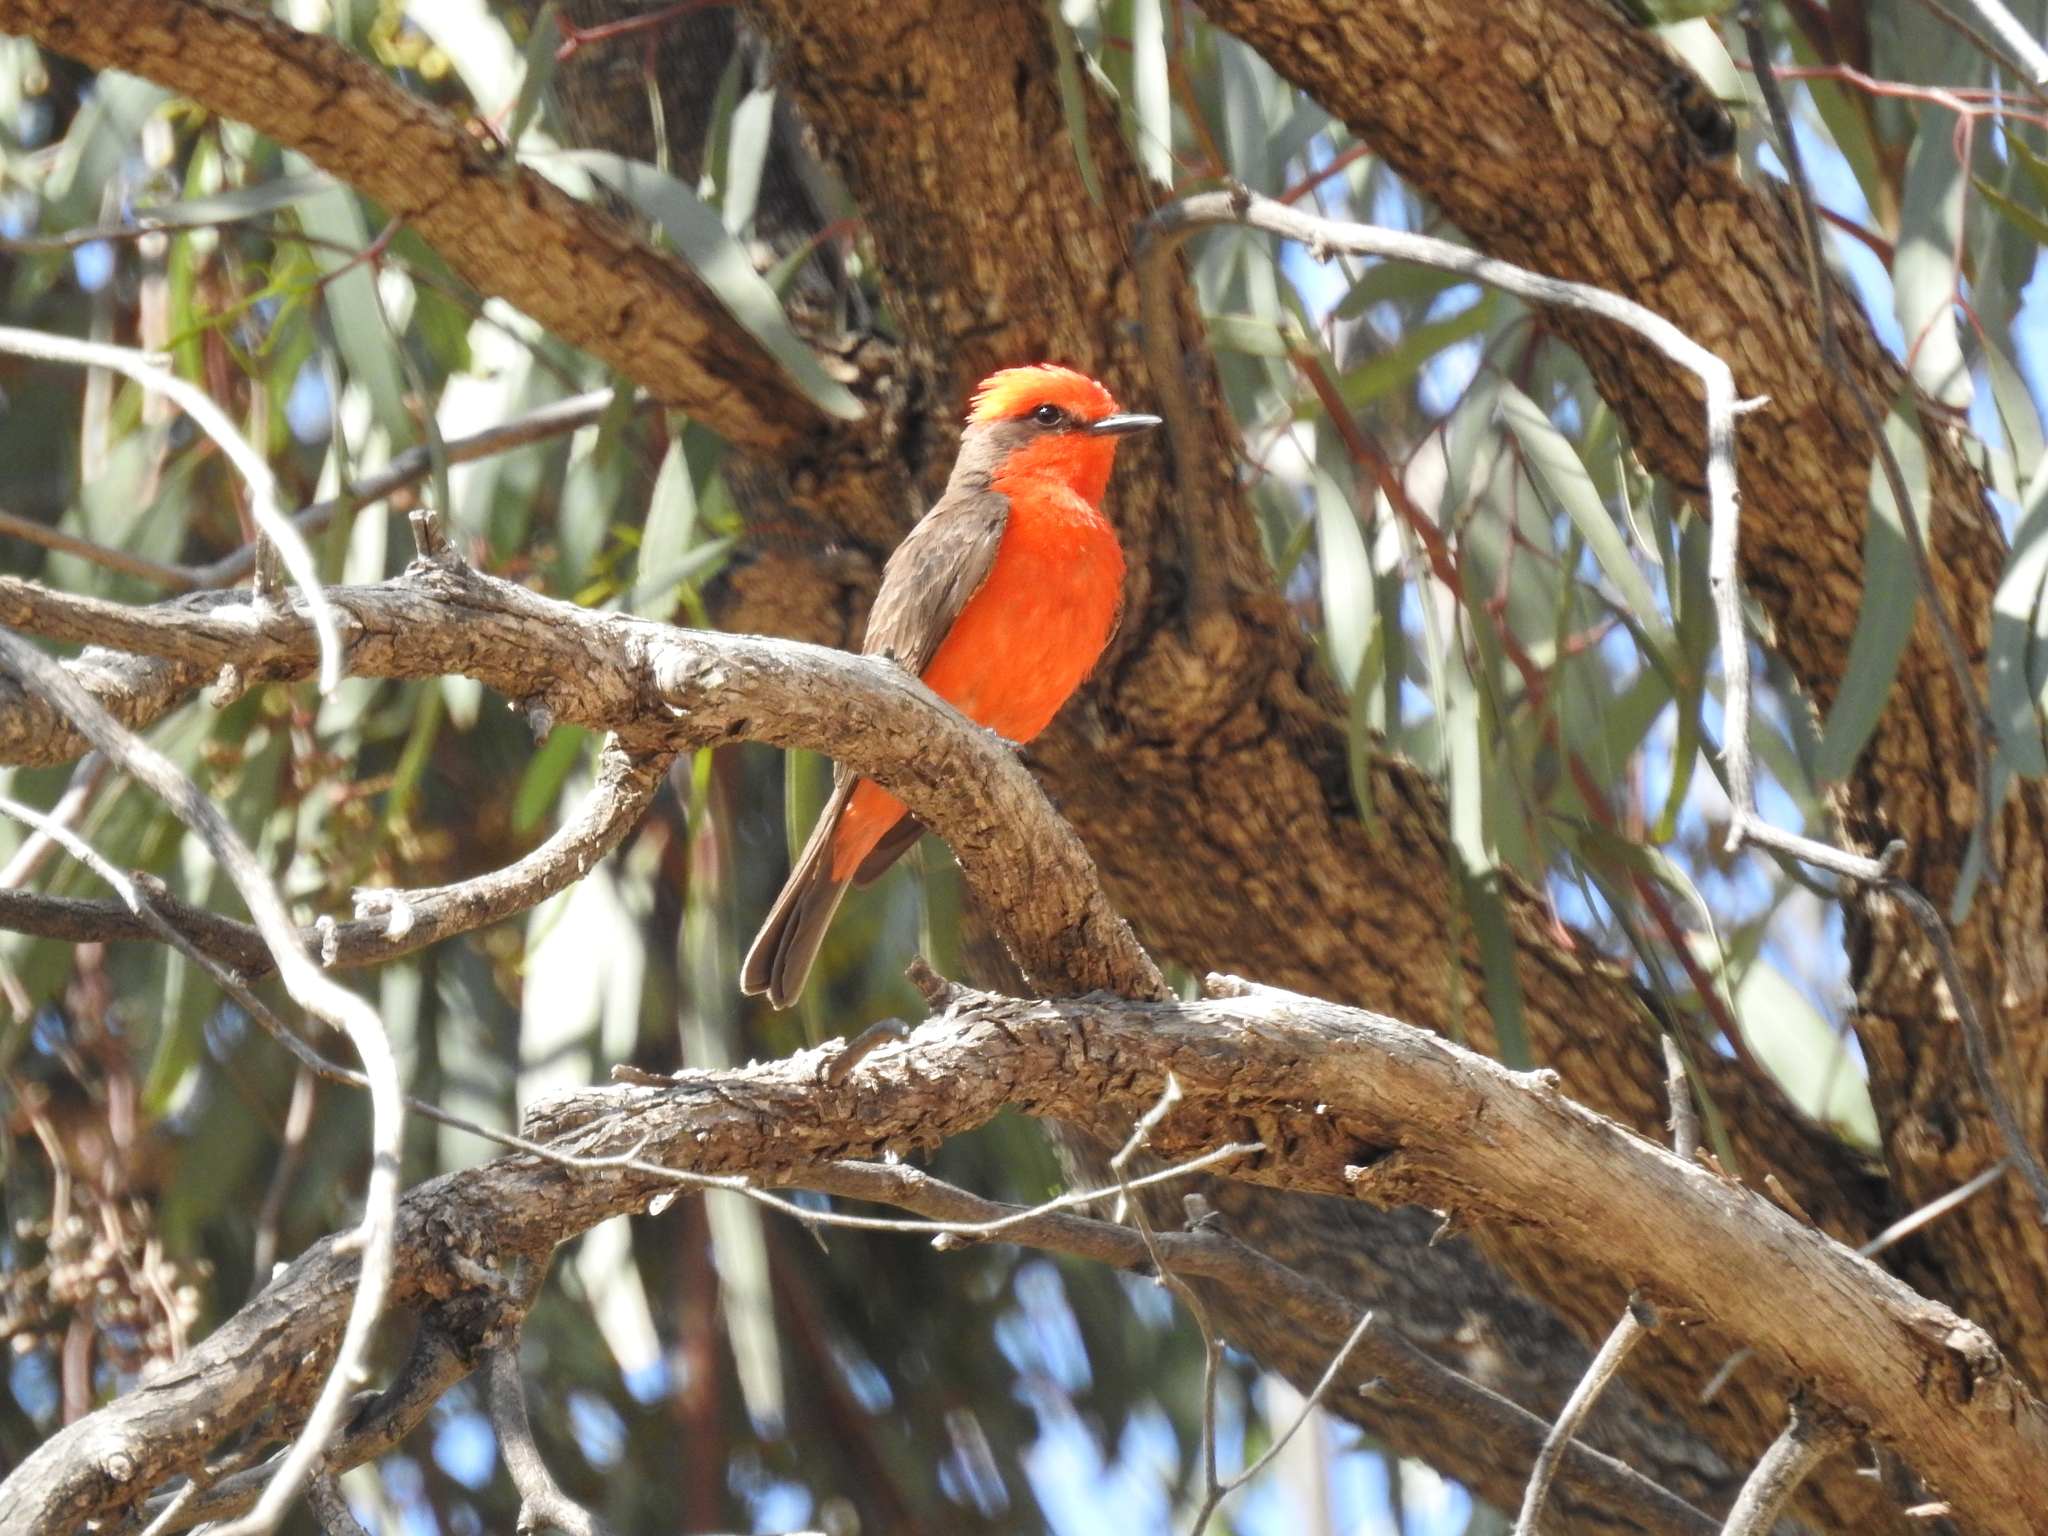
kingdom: Animalia
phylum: Chordata
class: Aves
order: Passeriformes
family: Tyrannidae
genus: Pyrocephalus
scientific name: Pyrocephalus rubinus
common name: Vermilion flycatcher
